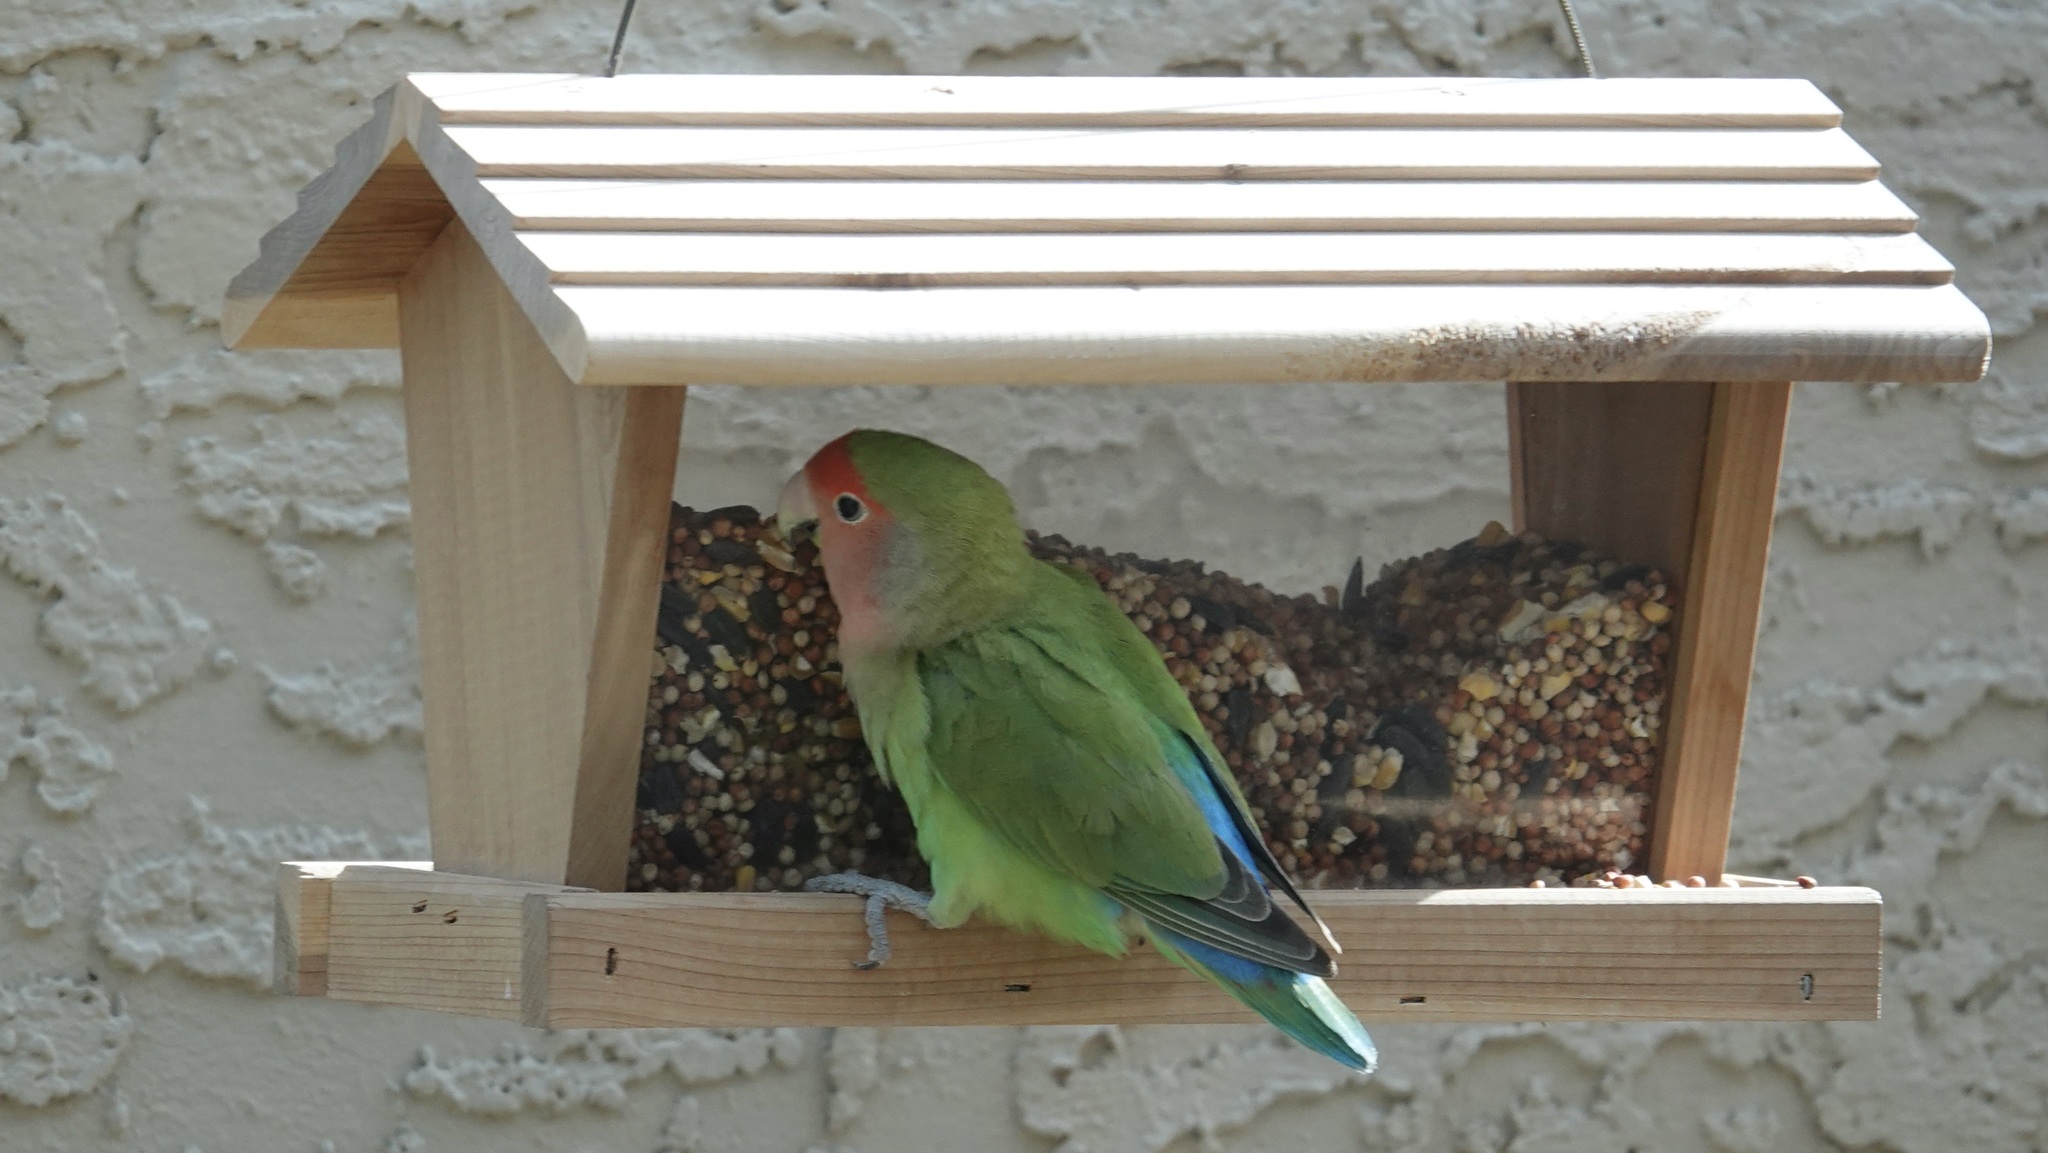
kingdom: Animalia
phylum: Chordata
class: Aves
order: Psittaciformes
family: Psittacidae
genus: Agapornis
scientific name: Agapornis roseicollis
